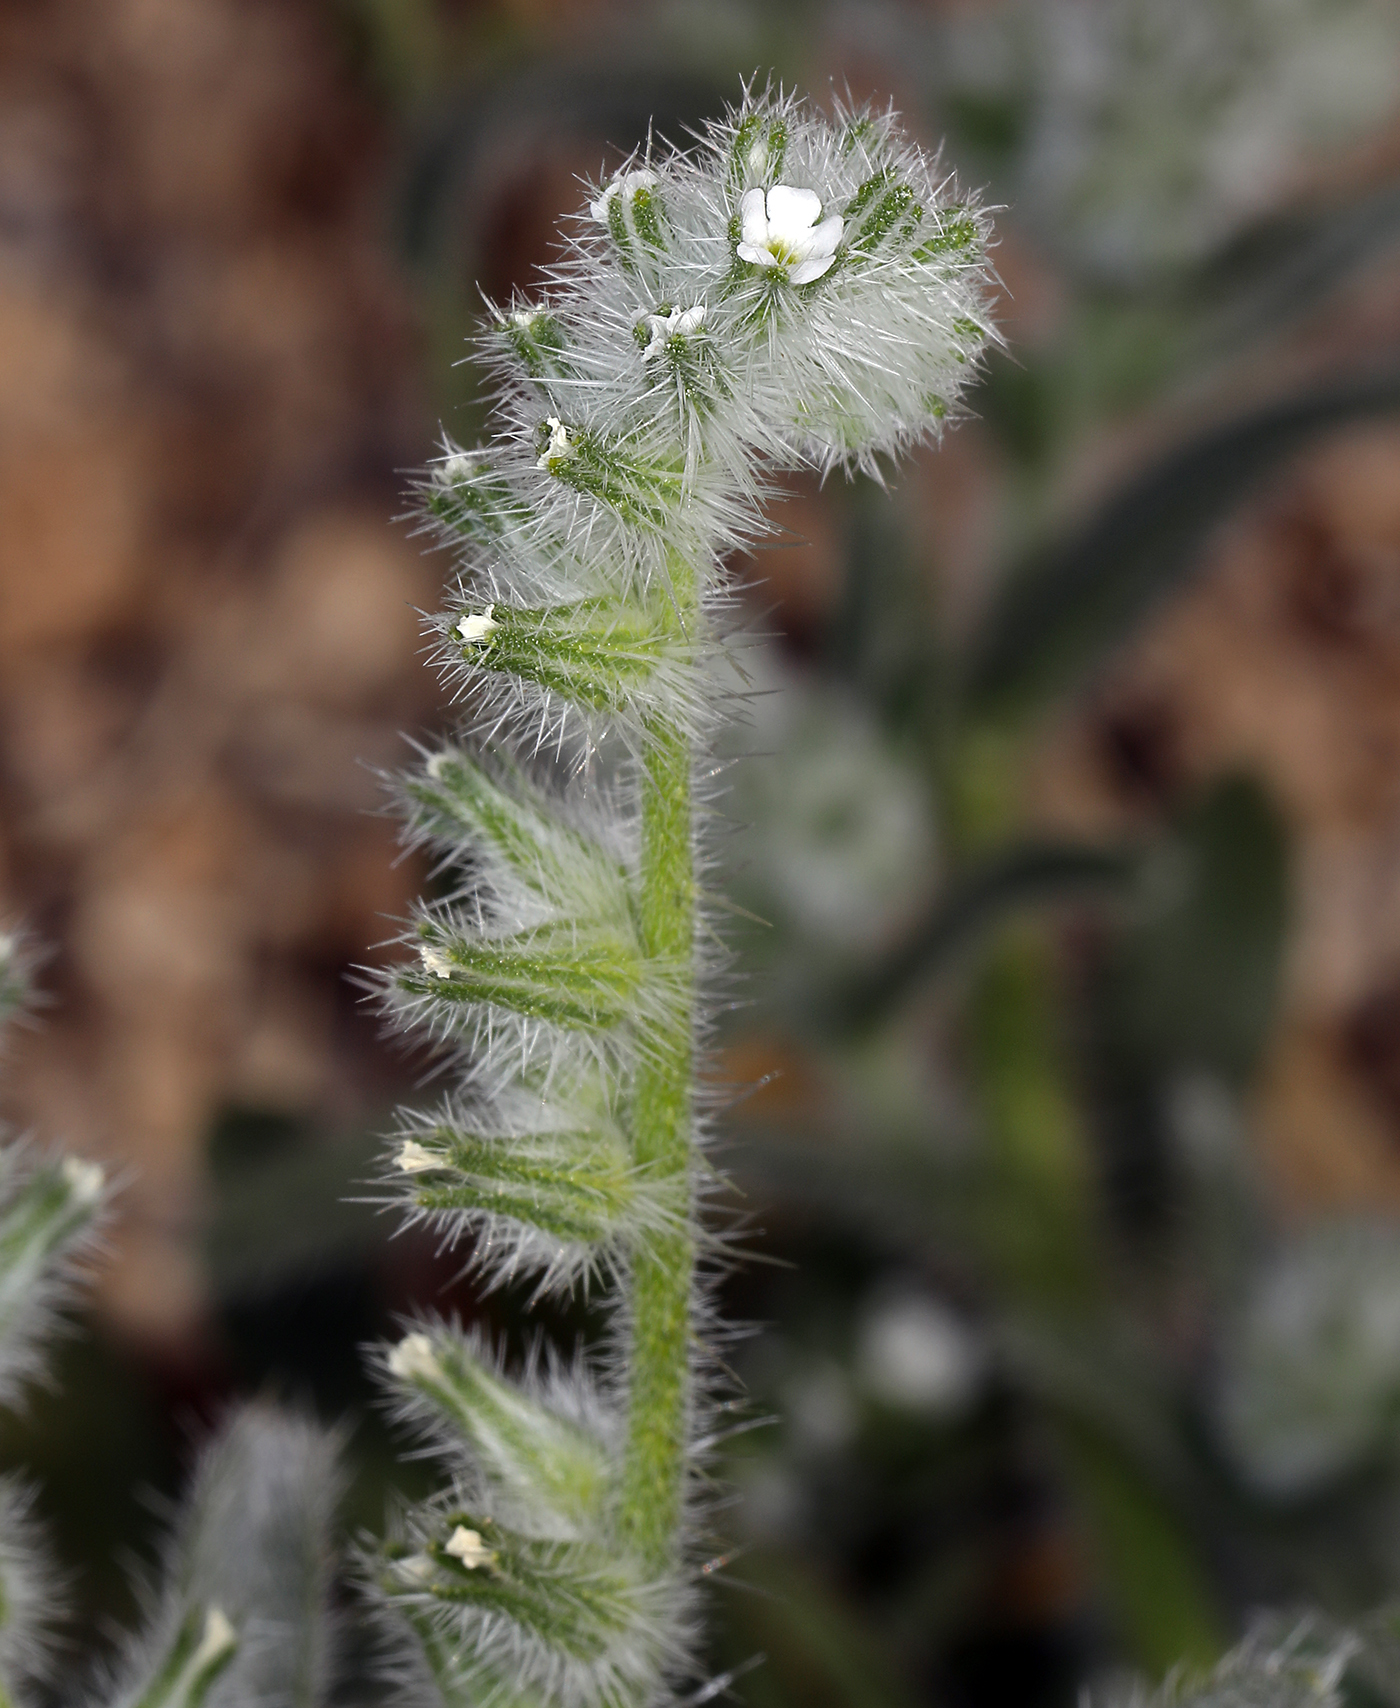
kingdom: Plantae
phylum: Tracheophyta
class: Magnoliopsida
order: Boraginales
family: Boraginaceae
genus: Cryptantha
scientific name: Cryptantha barbigera
